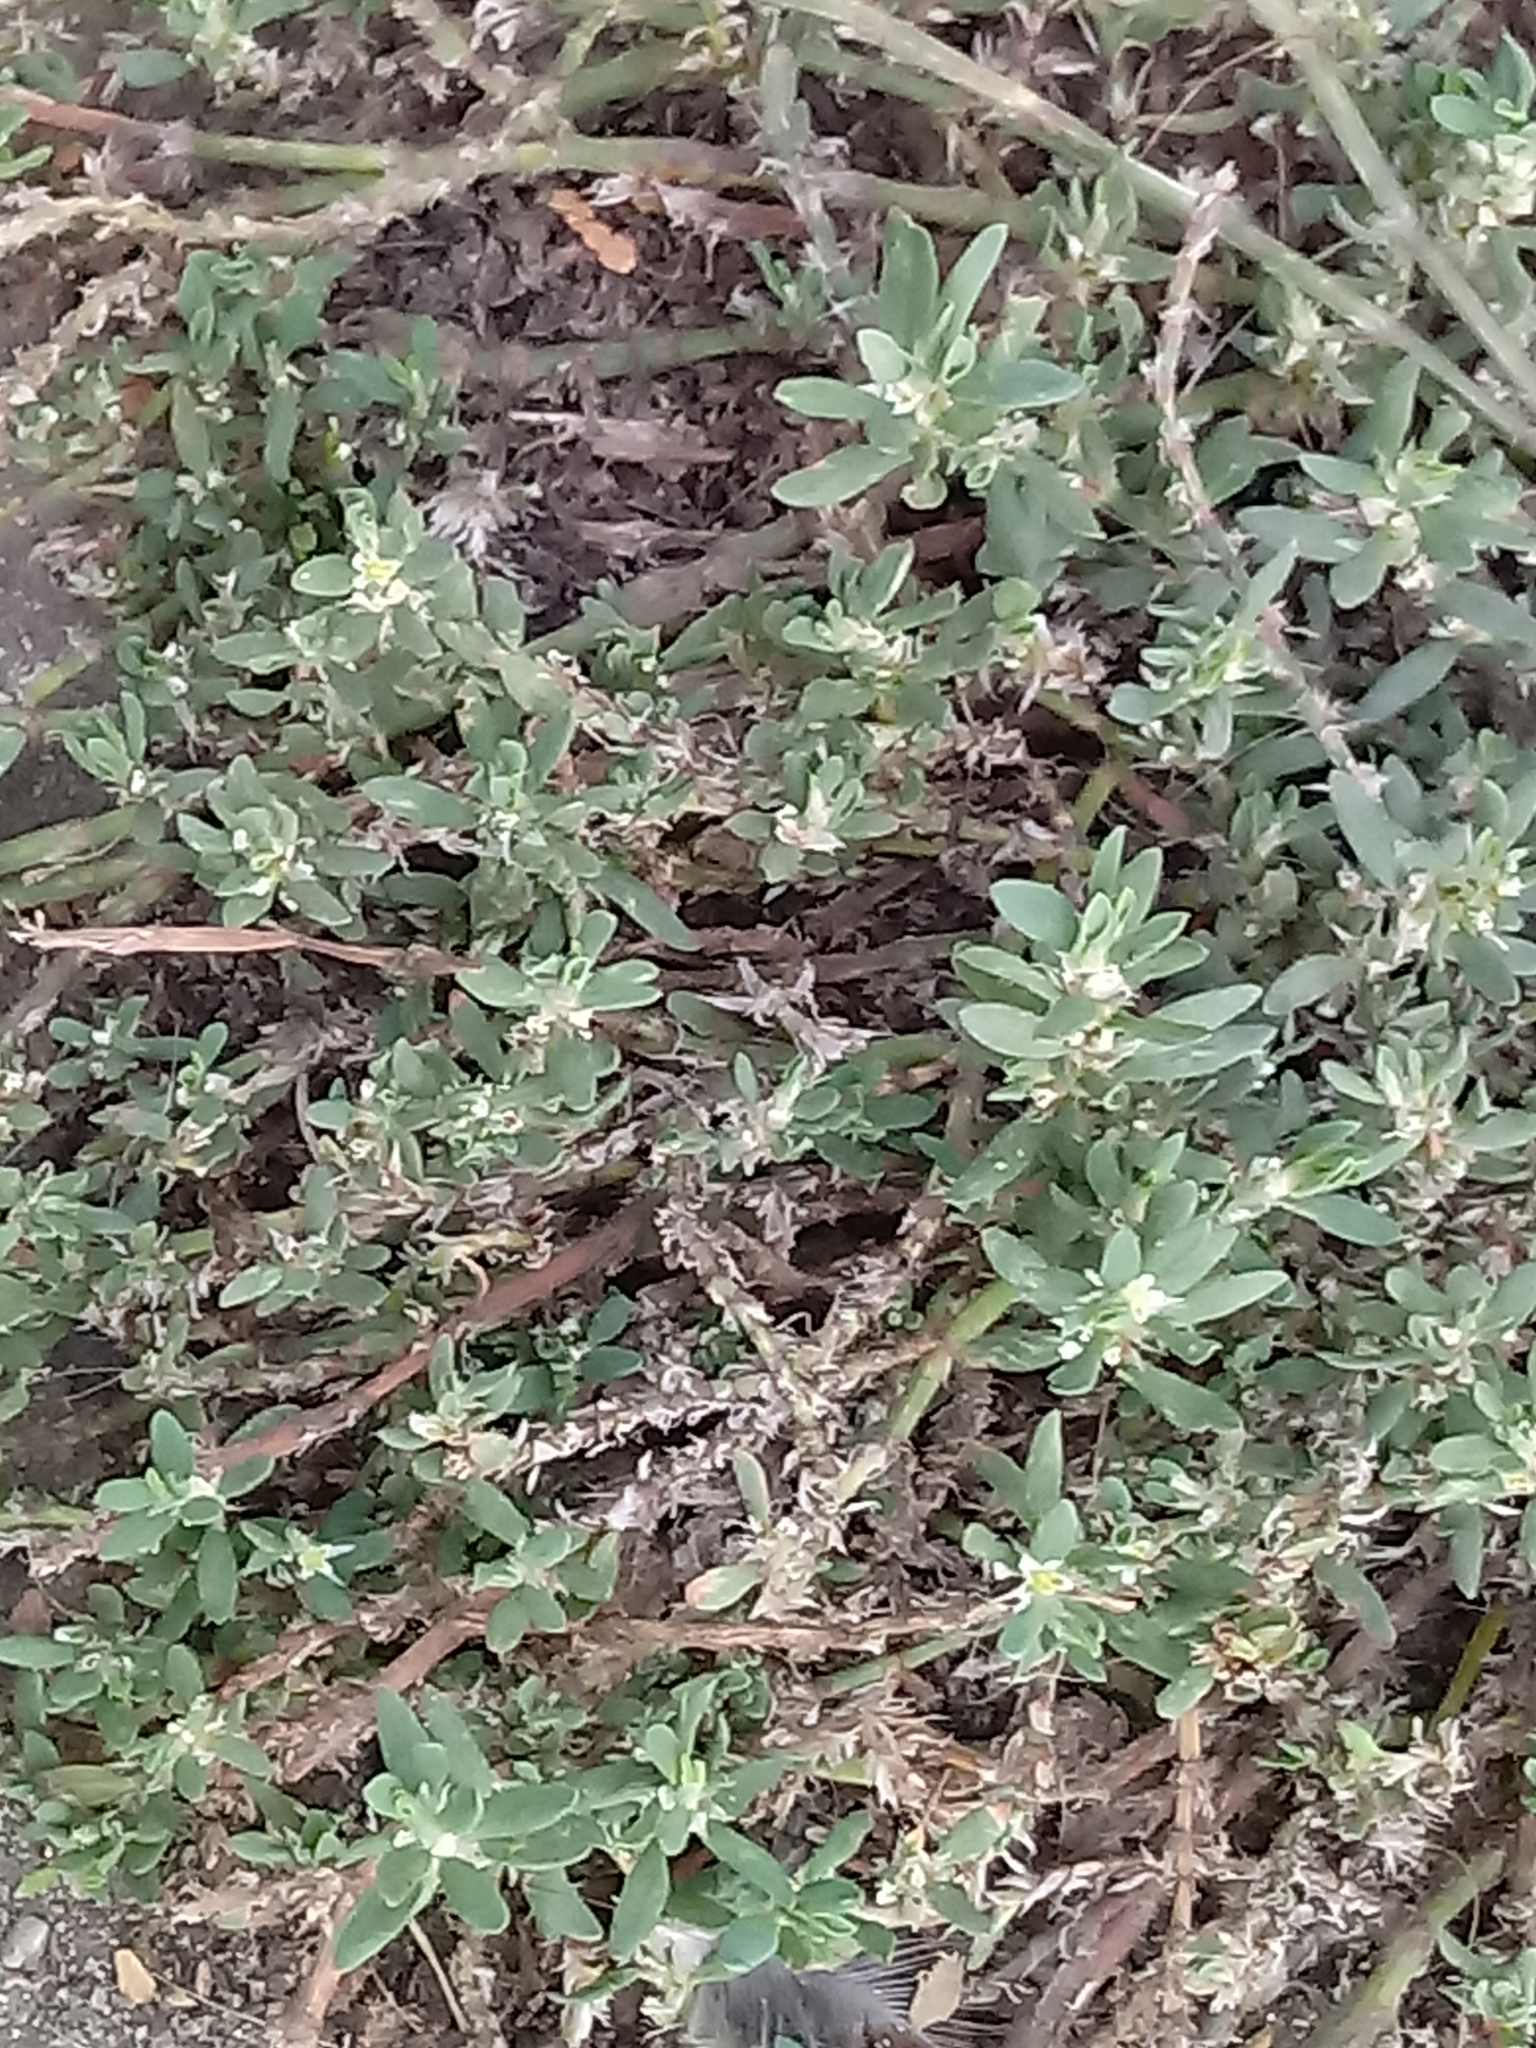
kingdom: Plantae
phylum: Tracheophyta
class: Magnoliopsida
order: Caryophyllales
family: Polygonaceae
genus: Polygonum
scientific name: Polygonum aviculare
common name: Prostrate knotweed
